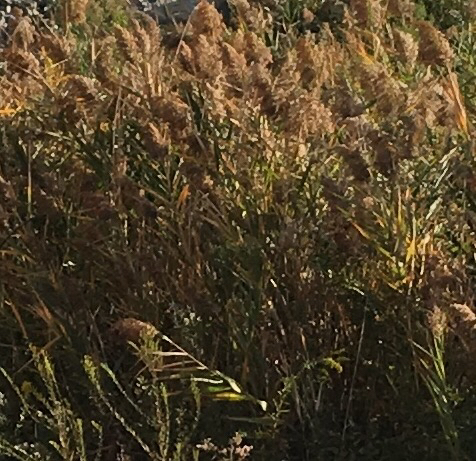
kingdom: Plantae
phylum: Tracheophyta
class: Liliopsida
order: Poales
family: Poaceae
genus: Phragmites
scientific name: Phragmites australis
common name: Common reed
